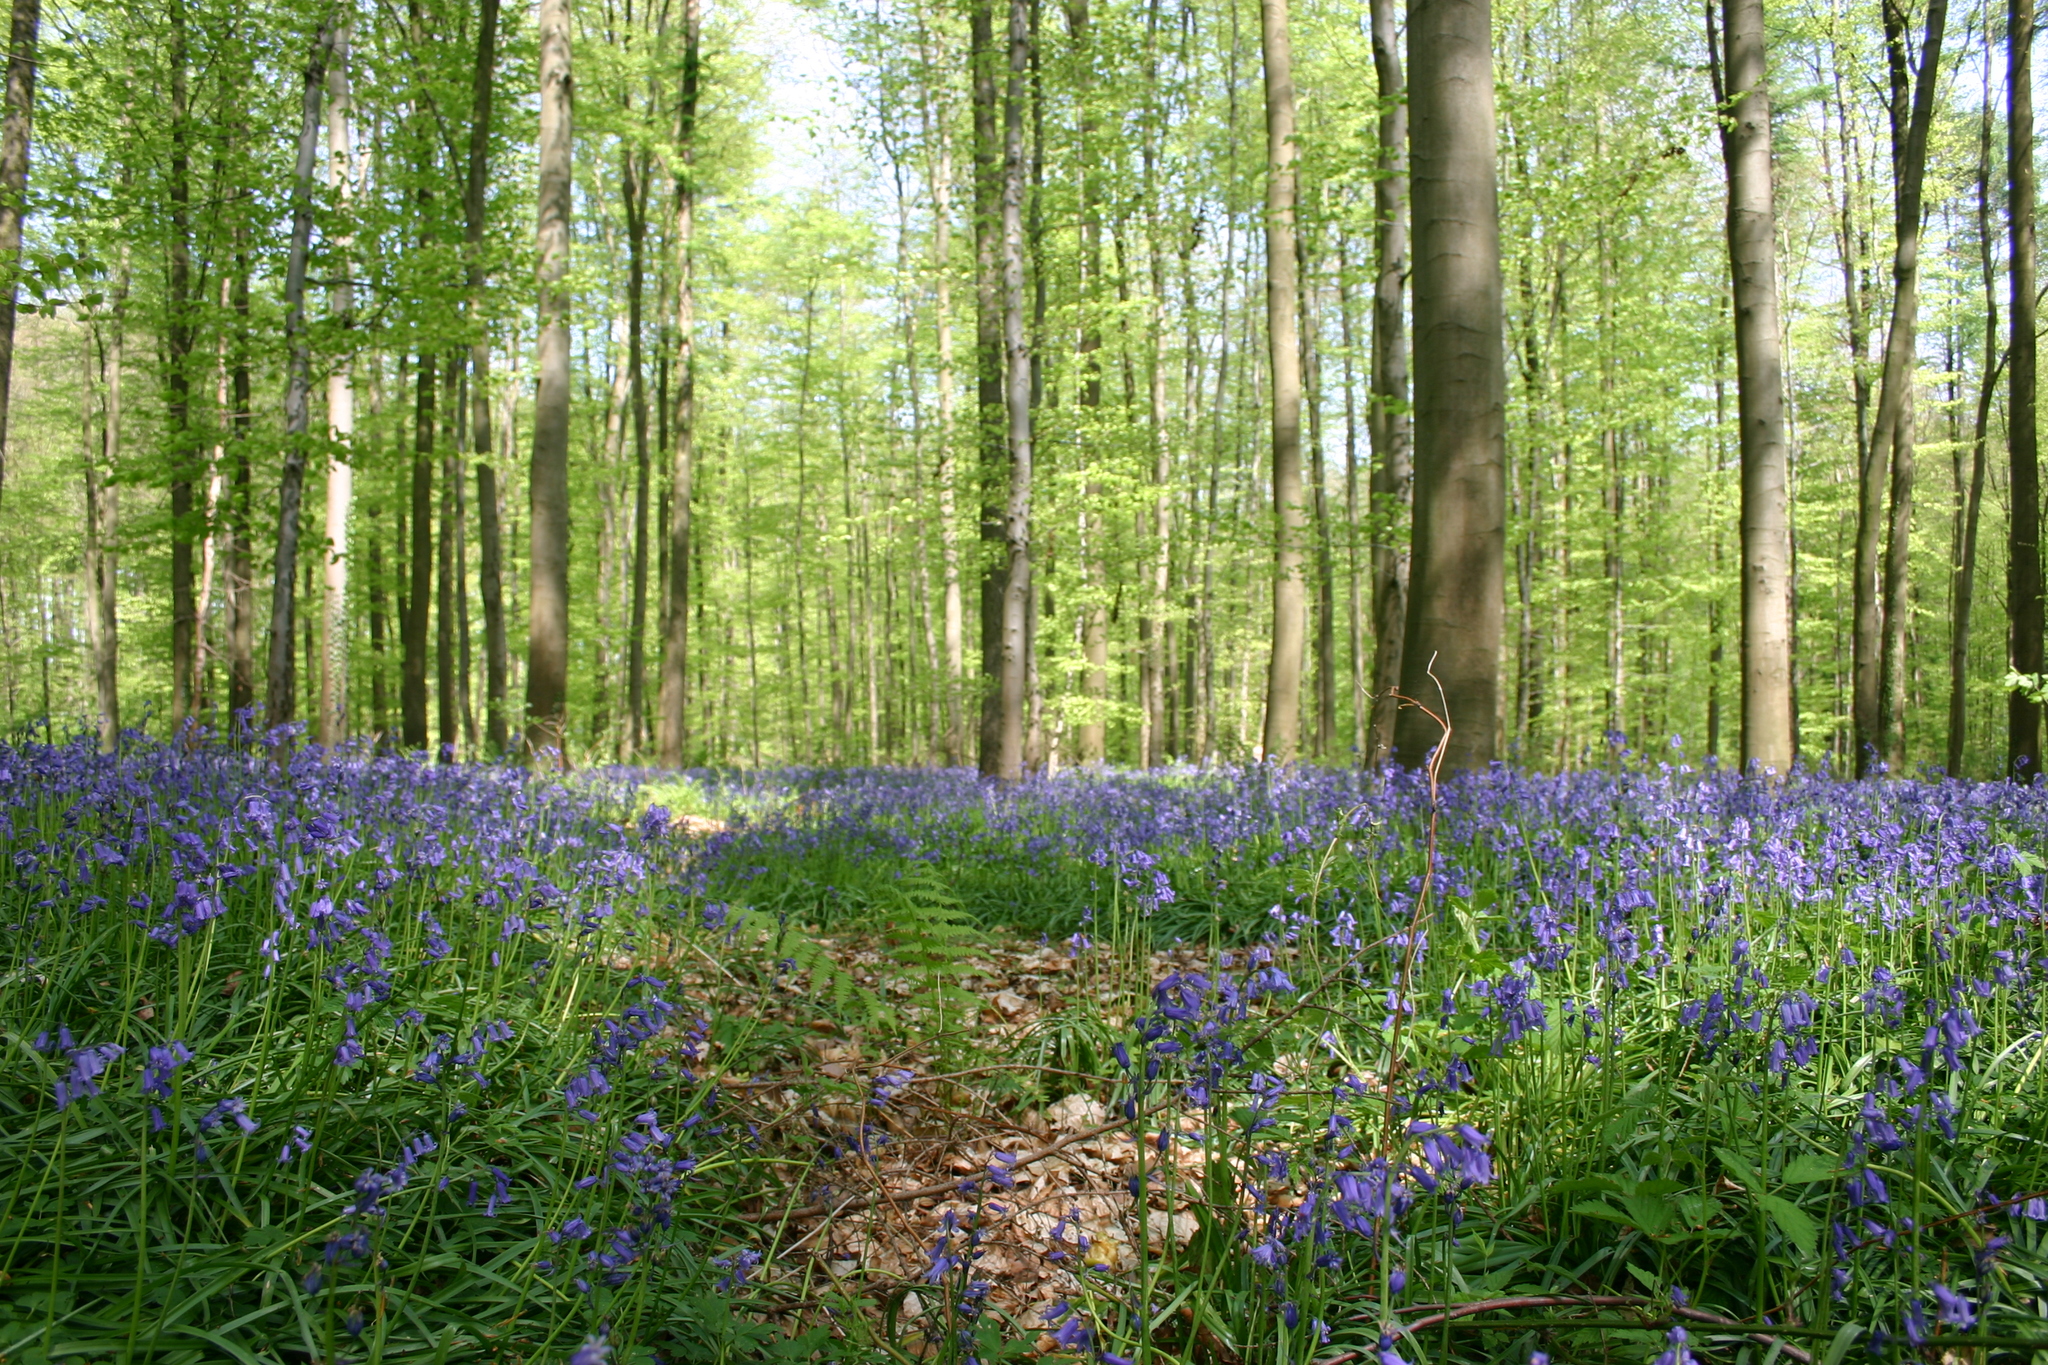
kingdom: Plantae
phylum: Tracheophyta
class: Magnoliopsida
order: Fagales
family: Fagaceae
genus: Fagus
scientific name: Fagus sylvatica
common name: Beech
